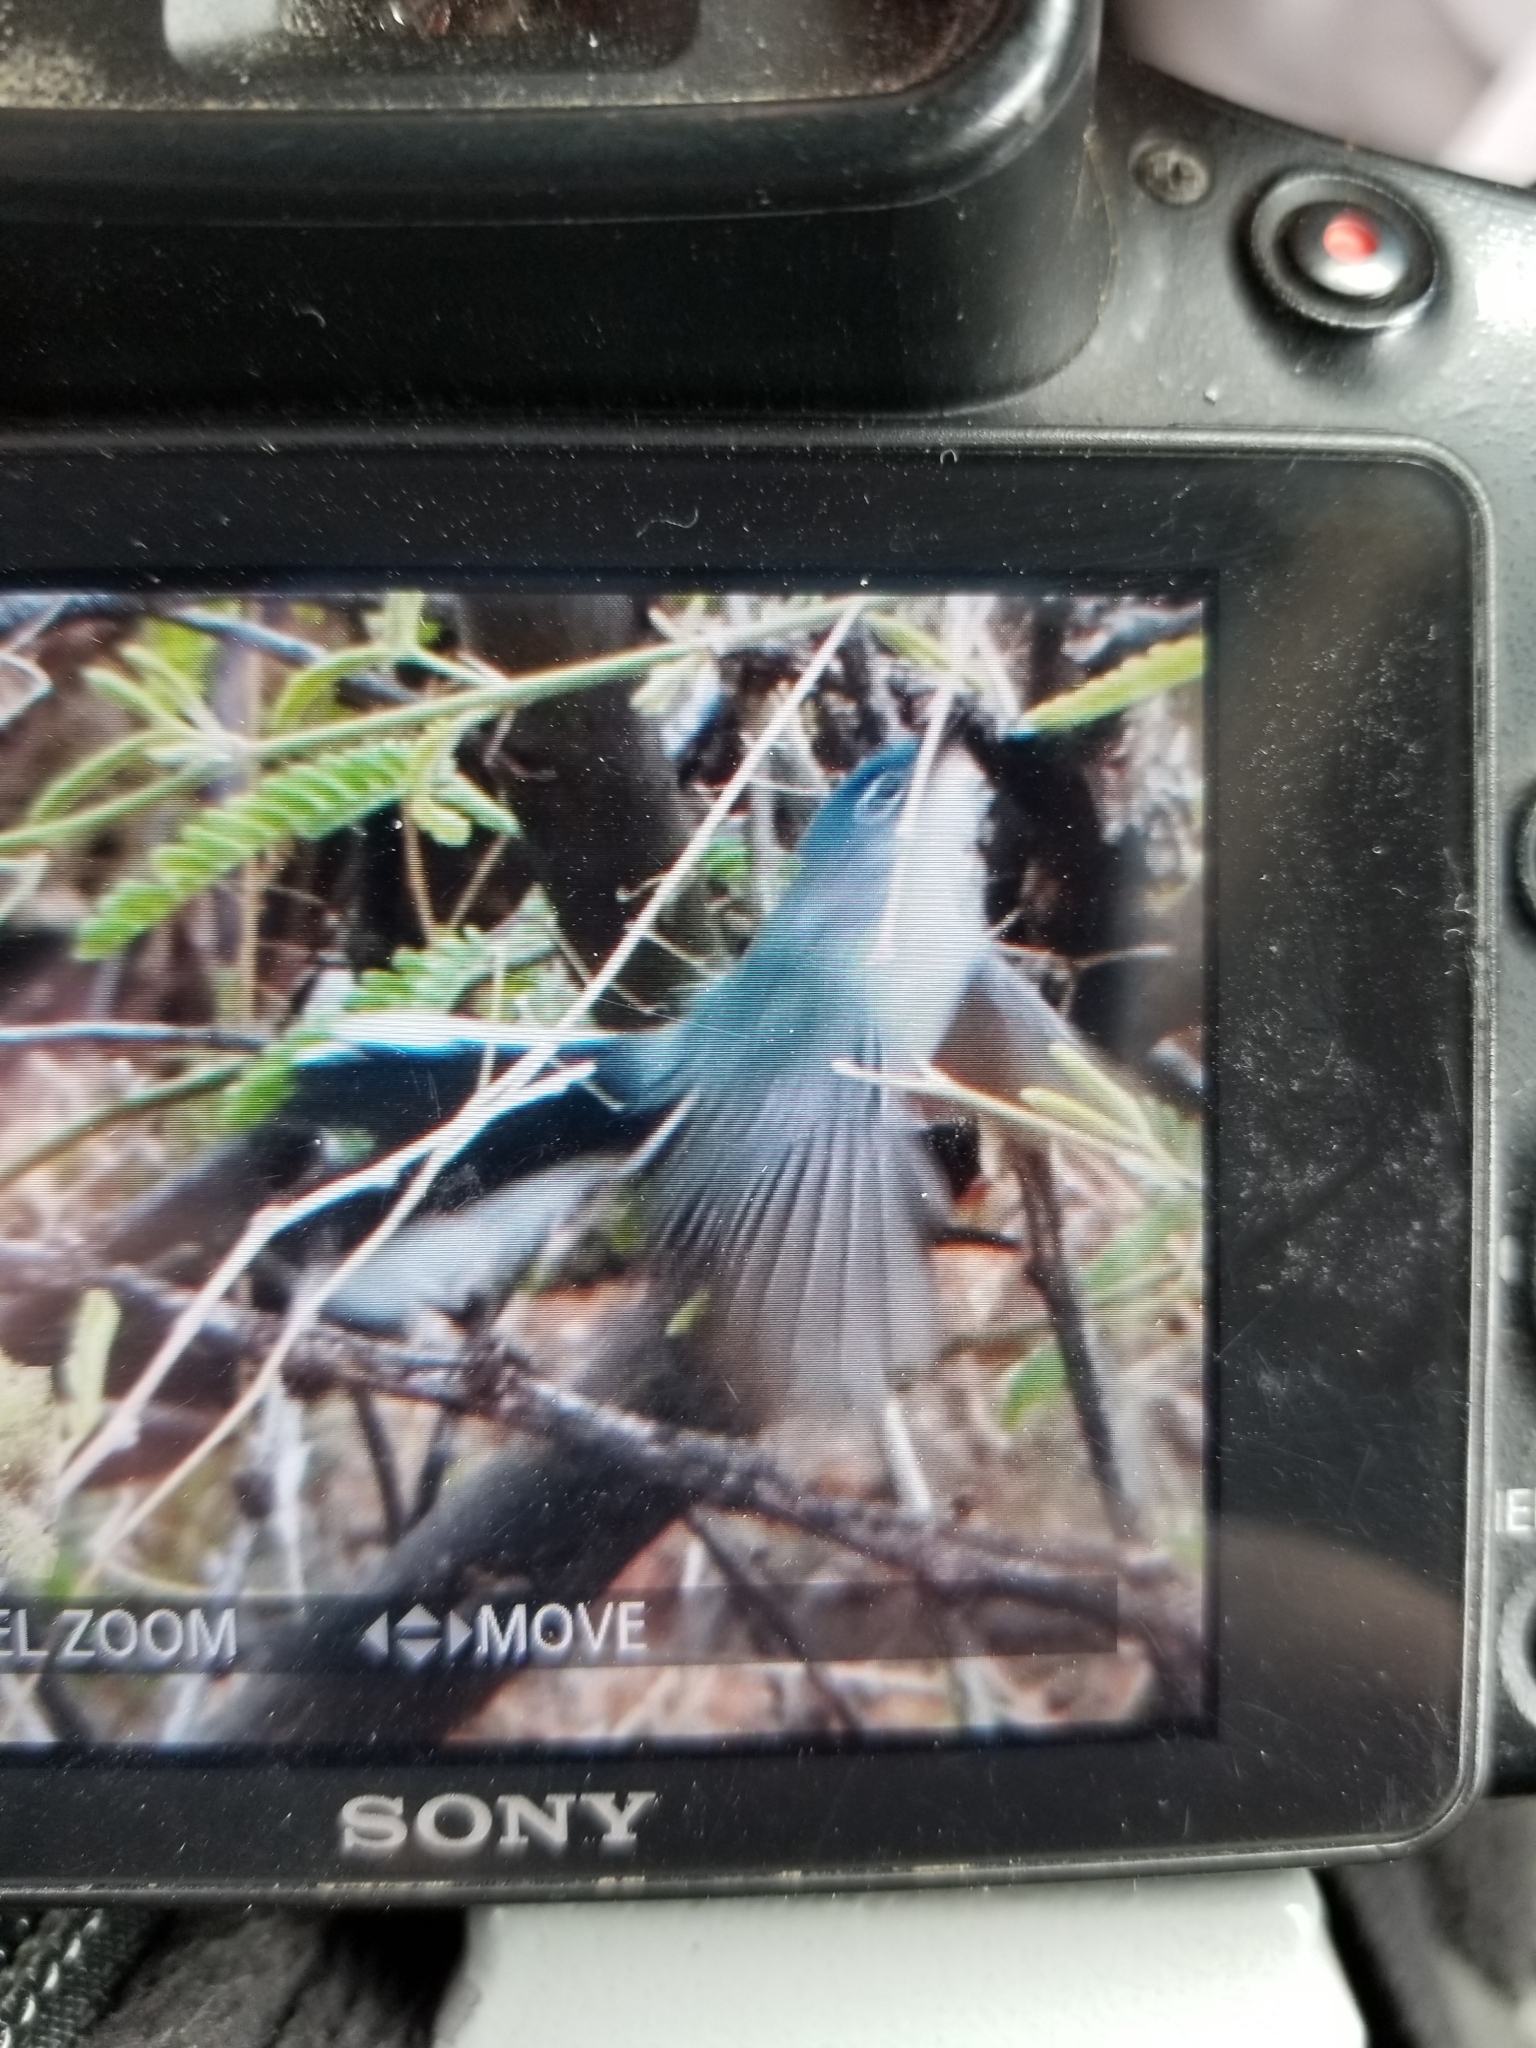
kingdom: Animalia
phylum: Chordata
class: Aves
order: Passeriformes
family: Polioptilidae
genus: Polioptila
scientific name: Polioptila caerulea
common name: Blue-gray gnatcatcher
